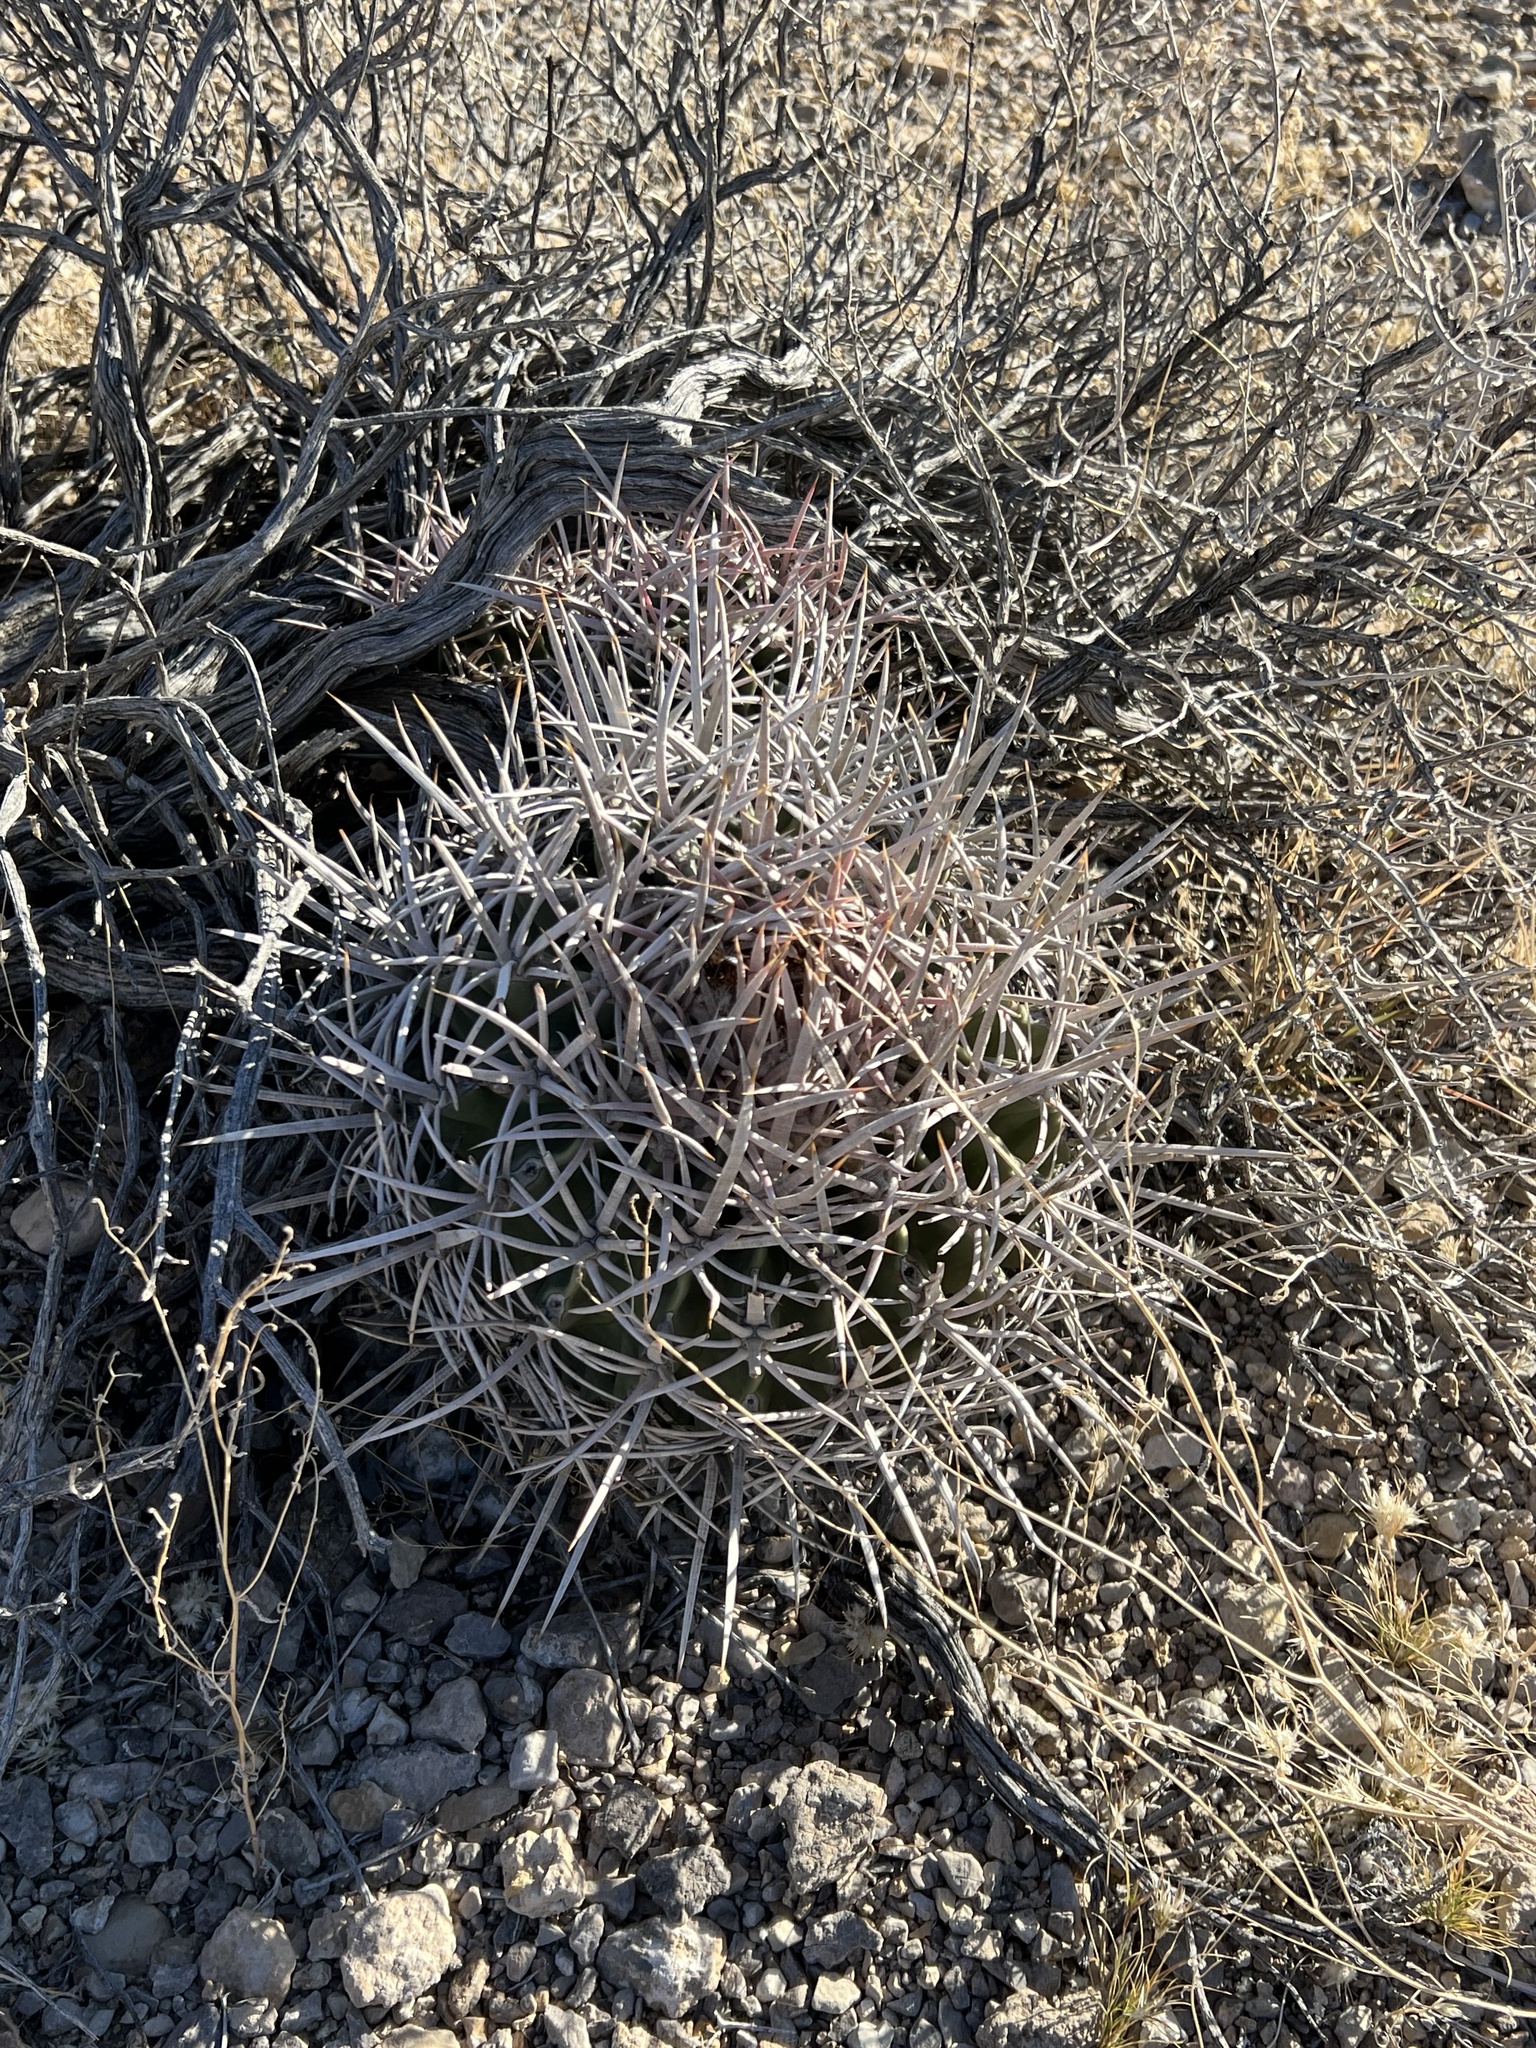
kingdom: Plantae
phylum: Tracheophyta
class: Magnoliopsida
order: Caryophyllales
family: Cactaceae
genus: Echinocactus
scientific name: Echinocactus polycephalus
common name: Cottontop cactus
